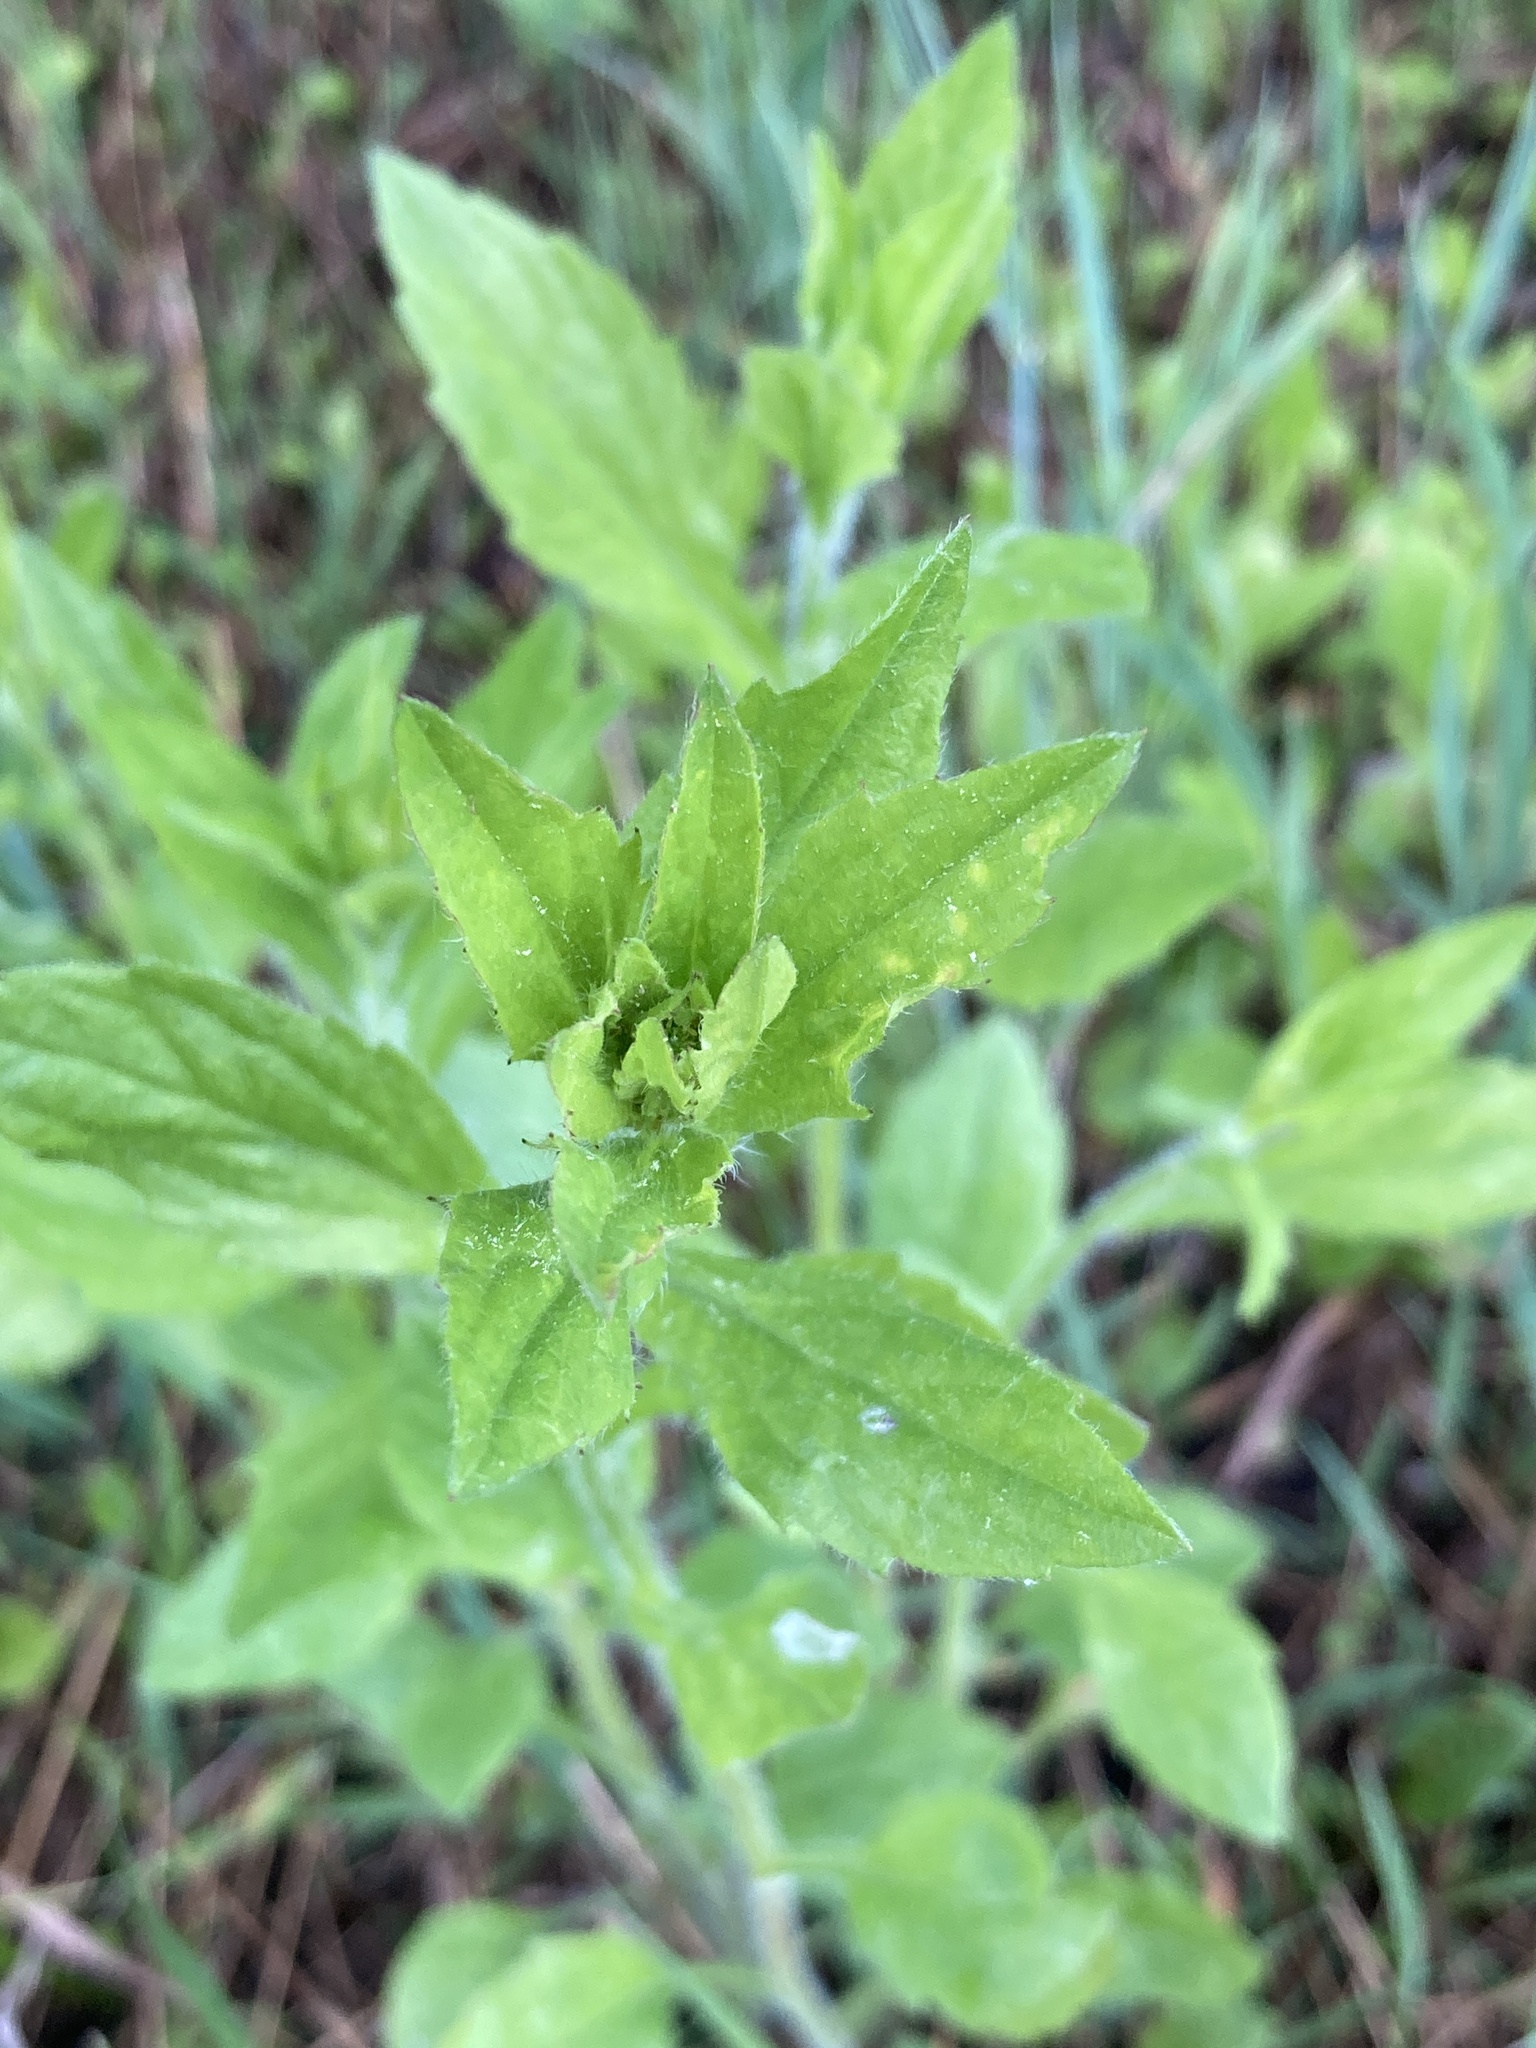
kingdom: Plantae
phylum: Tracheophyta
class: Magnoliopsida
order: Asterales
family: Asteraceae
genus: Erigeron
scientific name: Erigeron annuus
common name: Tall fleabane
